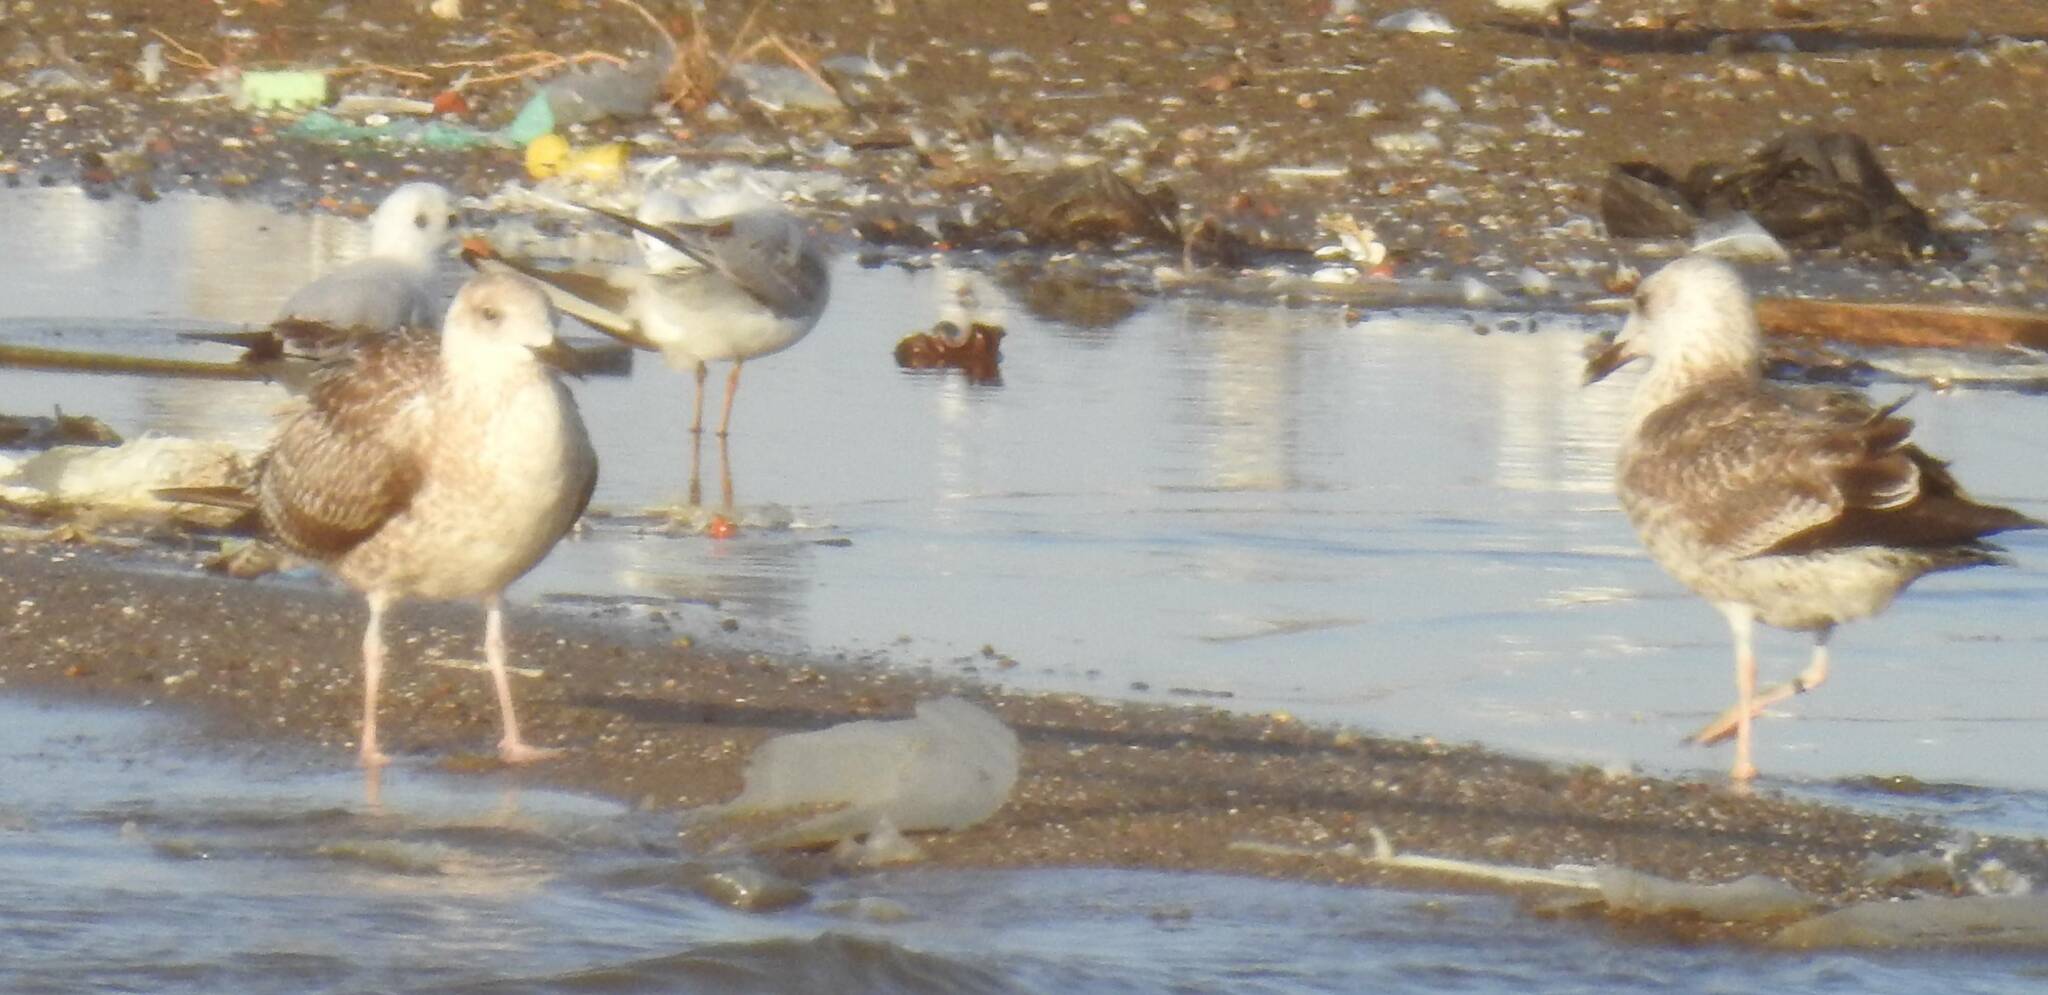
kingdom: Animalia
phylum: Chordata
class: Aves
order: Charadriiformes
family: Laridae
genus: Larus
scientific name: Larus fuscus
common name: Lesser black-backed gull
